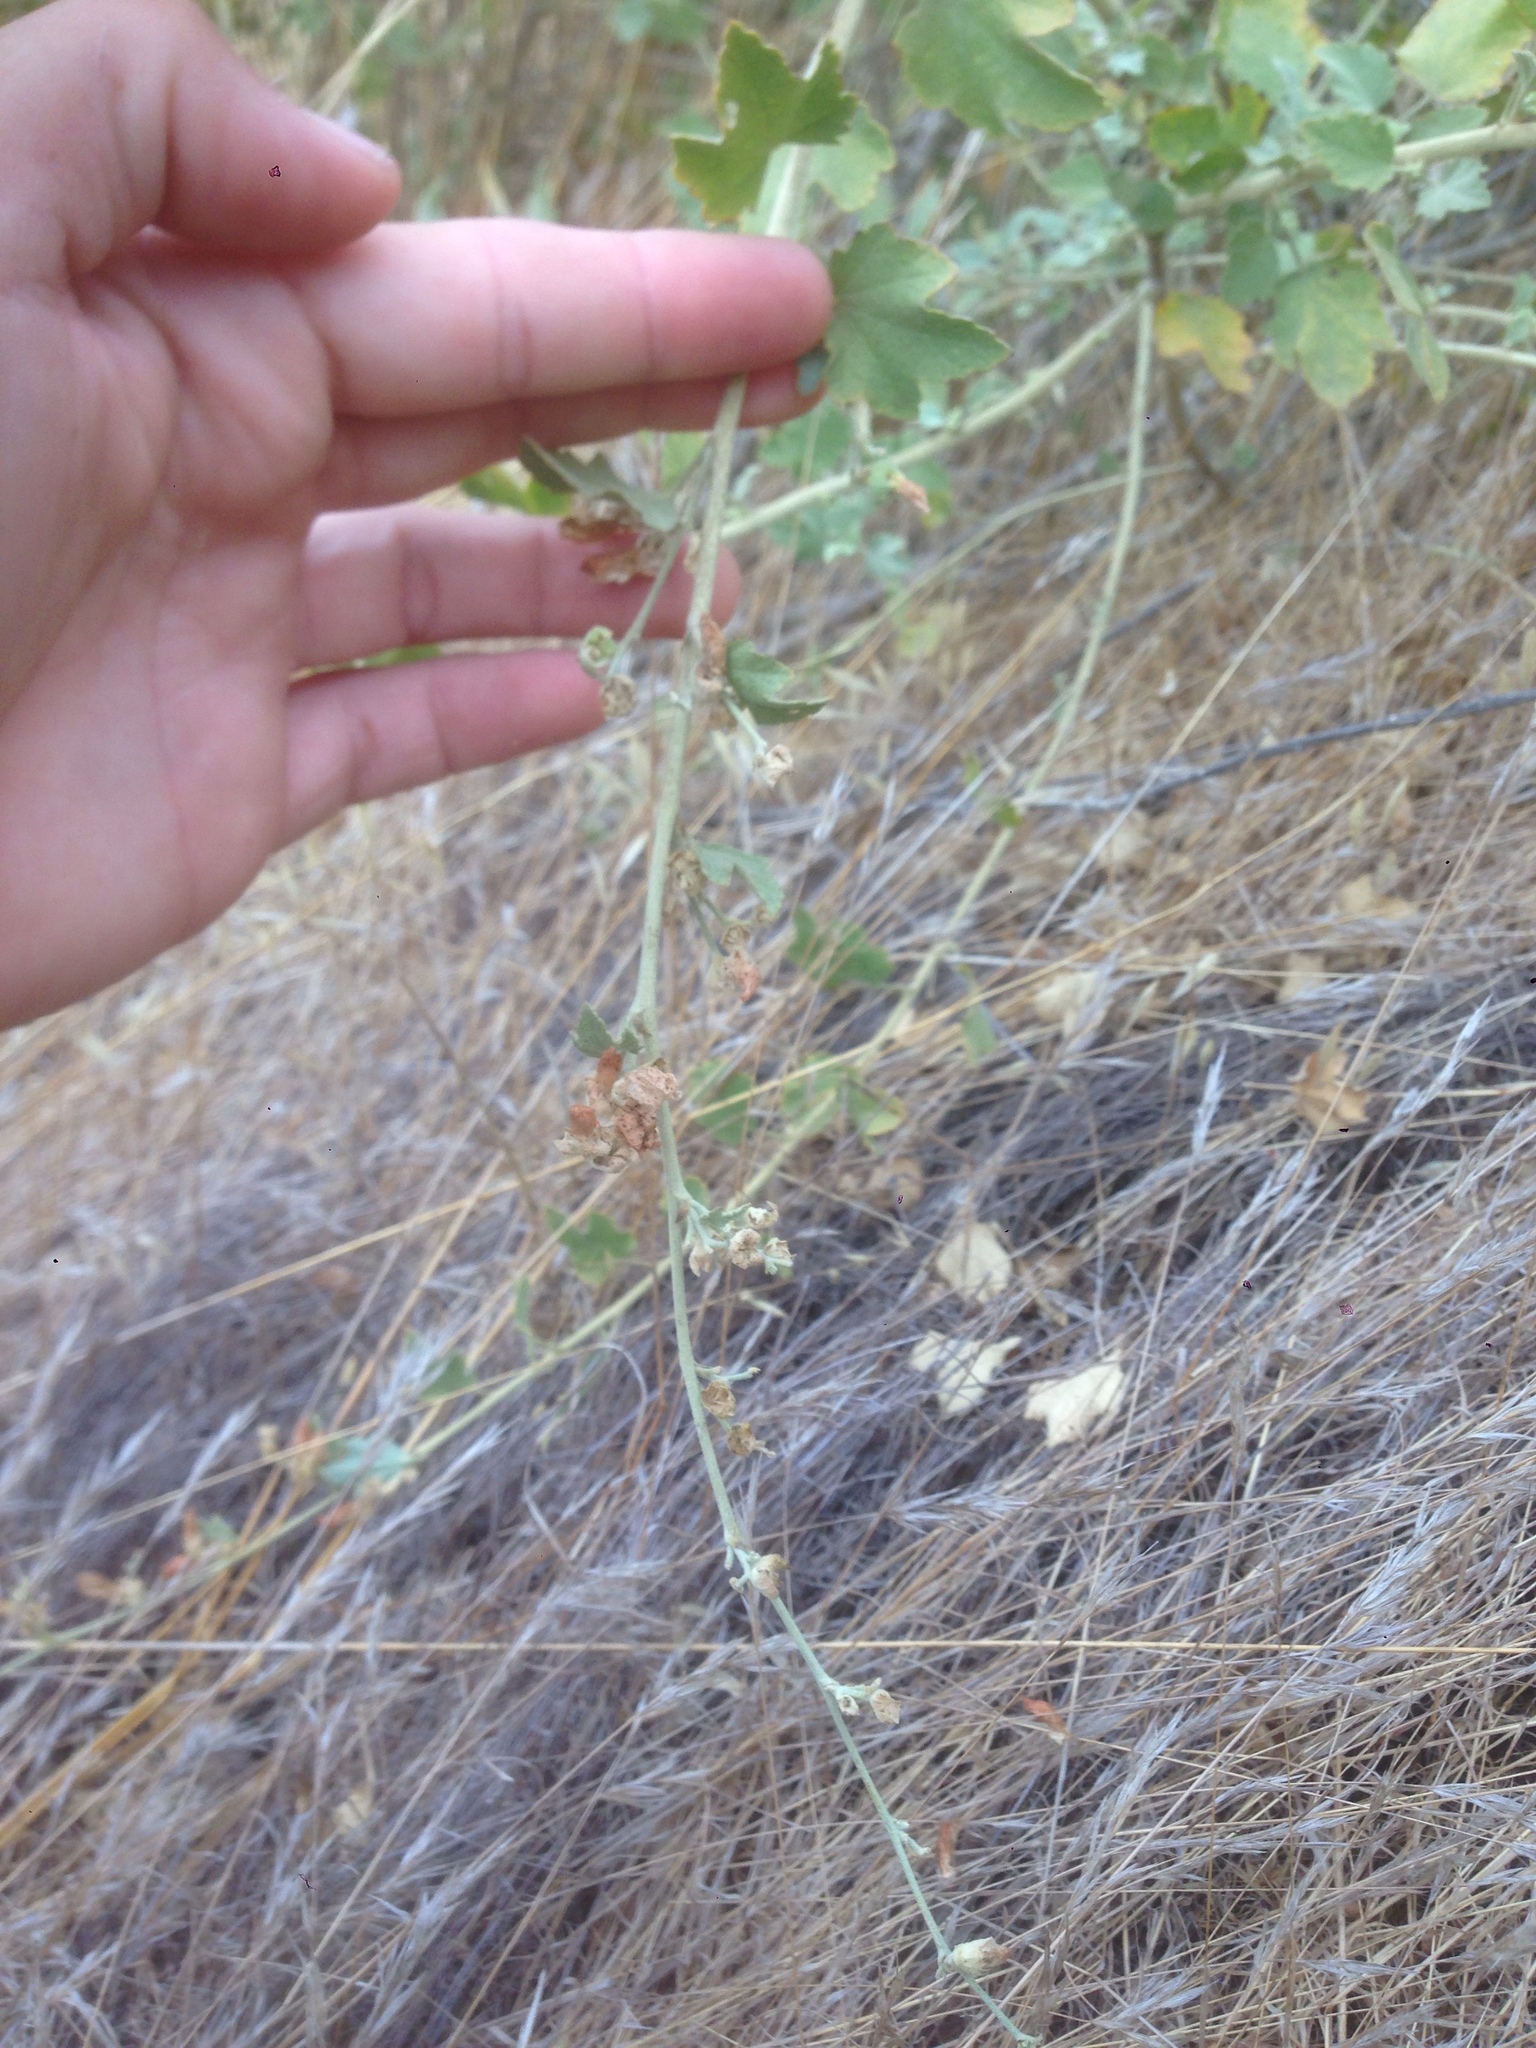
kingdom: Plantae
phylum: Tracheophyta
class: Magnoliopsida
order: Malvales
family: Malvaceae
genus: Malacothamnus
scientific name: Malacothamnus fasciculatus
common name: Sant cruz island bush-mallow
